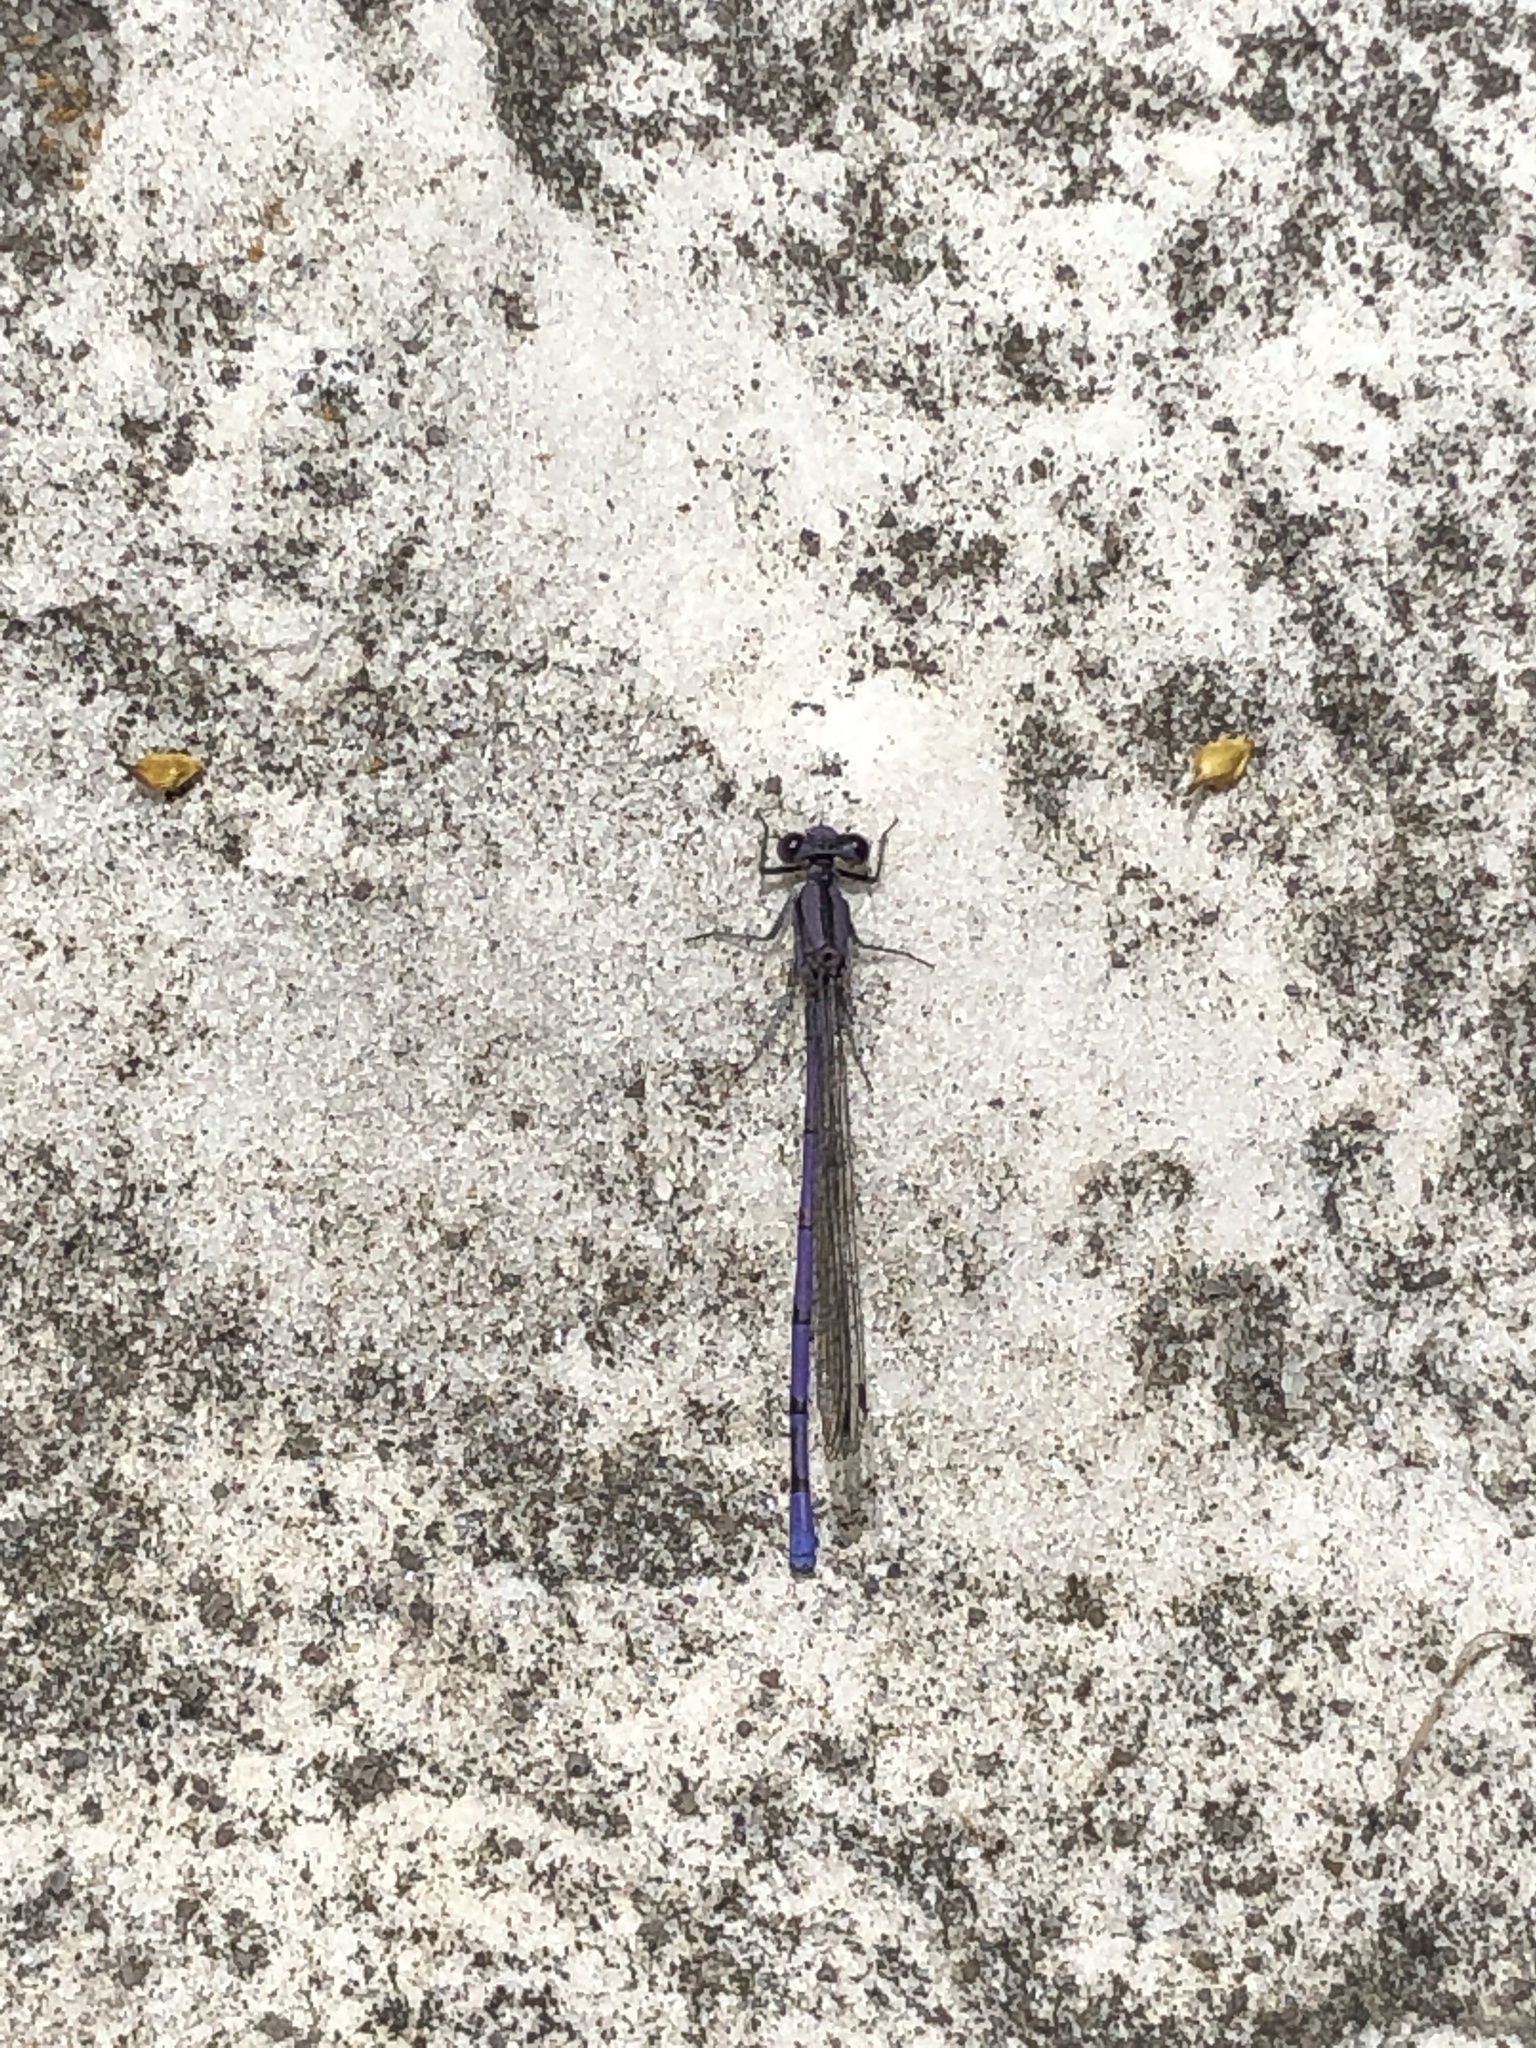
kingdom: Animalia
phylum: Arthropoda
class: Insecta
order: Odonata
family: Coenagrionidae
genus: Argia
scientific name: Argia fumipennis
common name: Variable dancer
